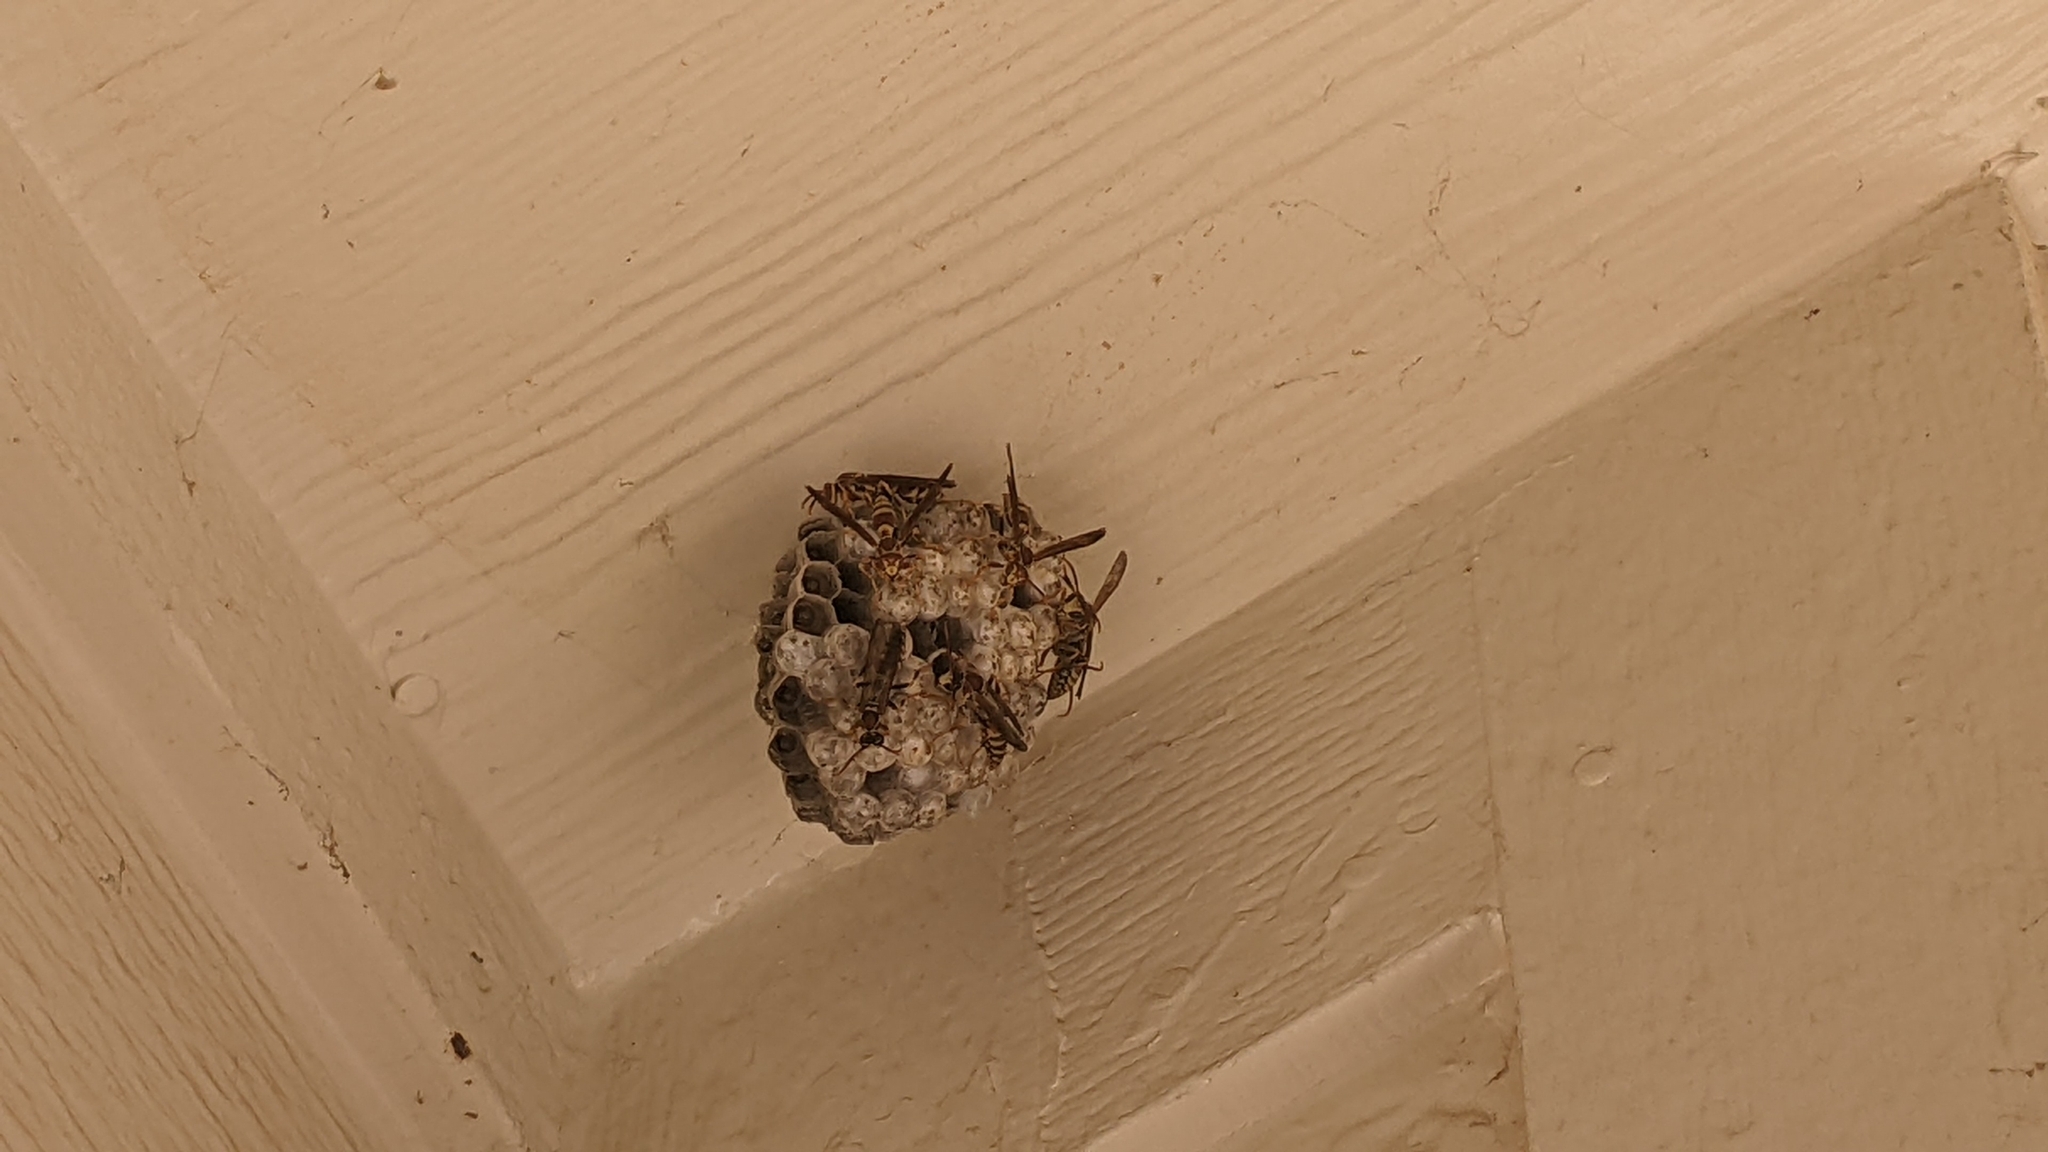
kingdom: Animalia
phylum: Arthropoda
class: Insecta
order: Hymenoptera
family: Eumenidae
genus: Polistes
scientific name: Polistes exclamans
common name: Paper wasp
